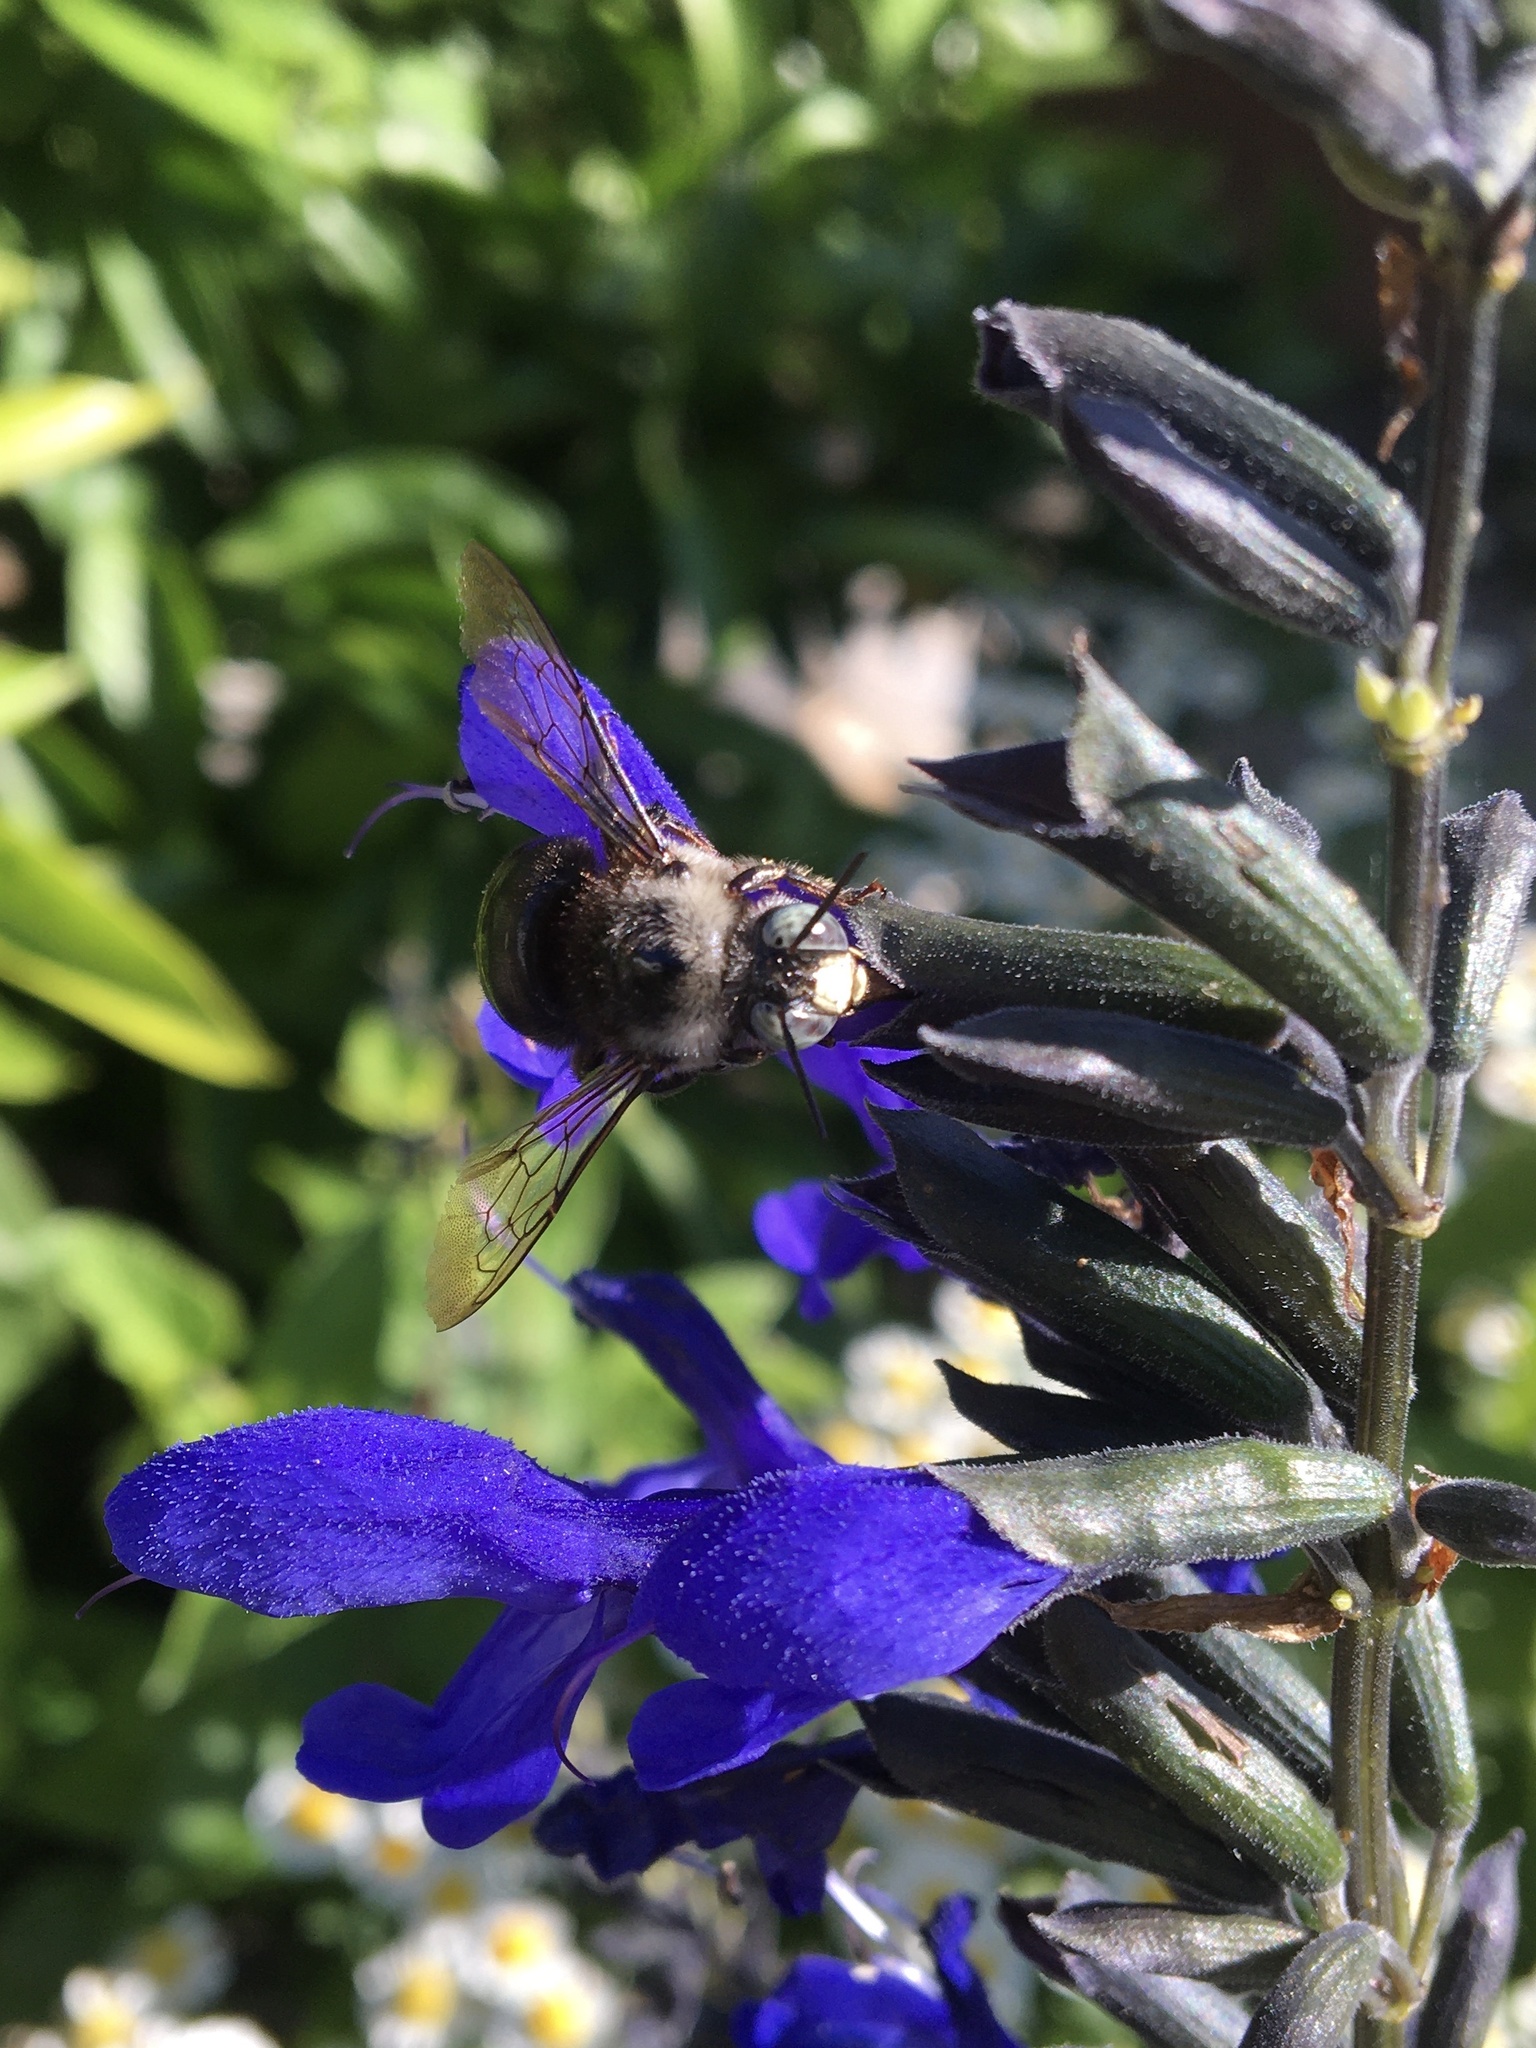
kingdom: Animalia
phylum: Arthropoda
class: Insecta
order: Hymenoptera
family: Apidae
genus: Xylocopa
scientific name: Xylocopa tabaniformis
